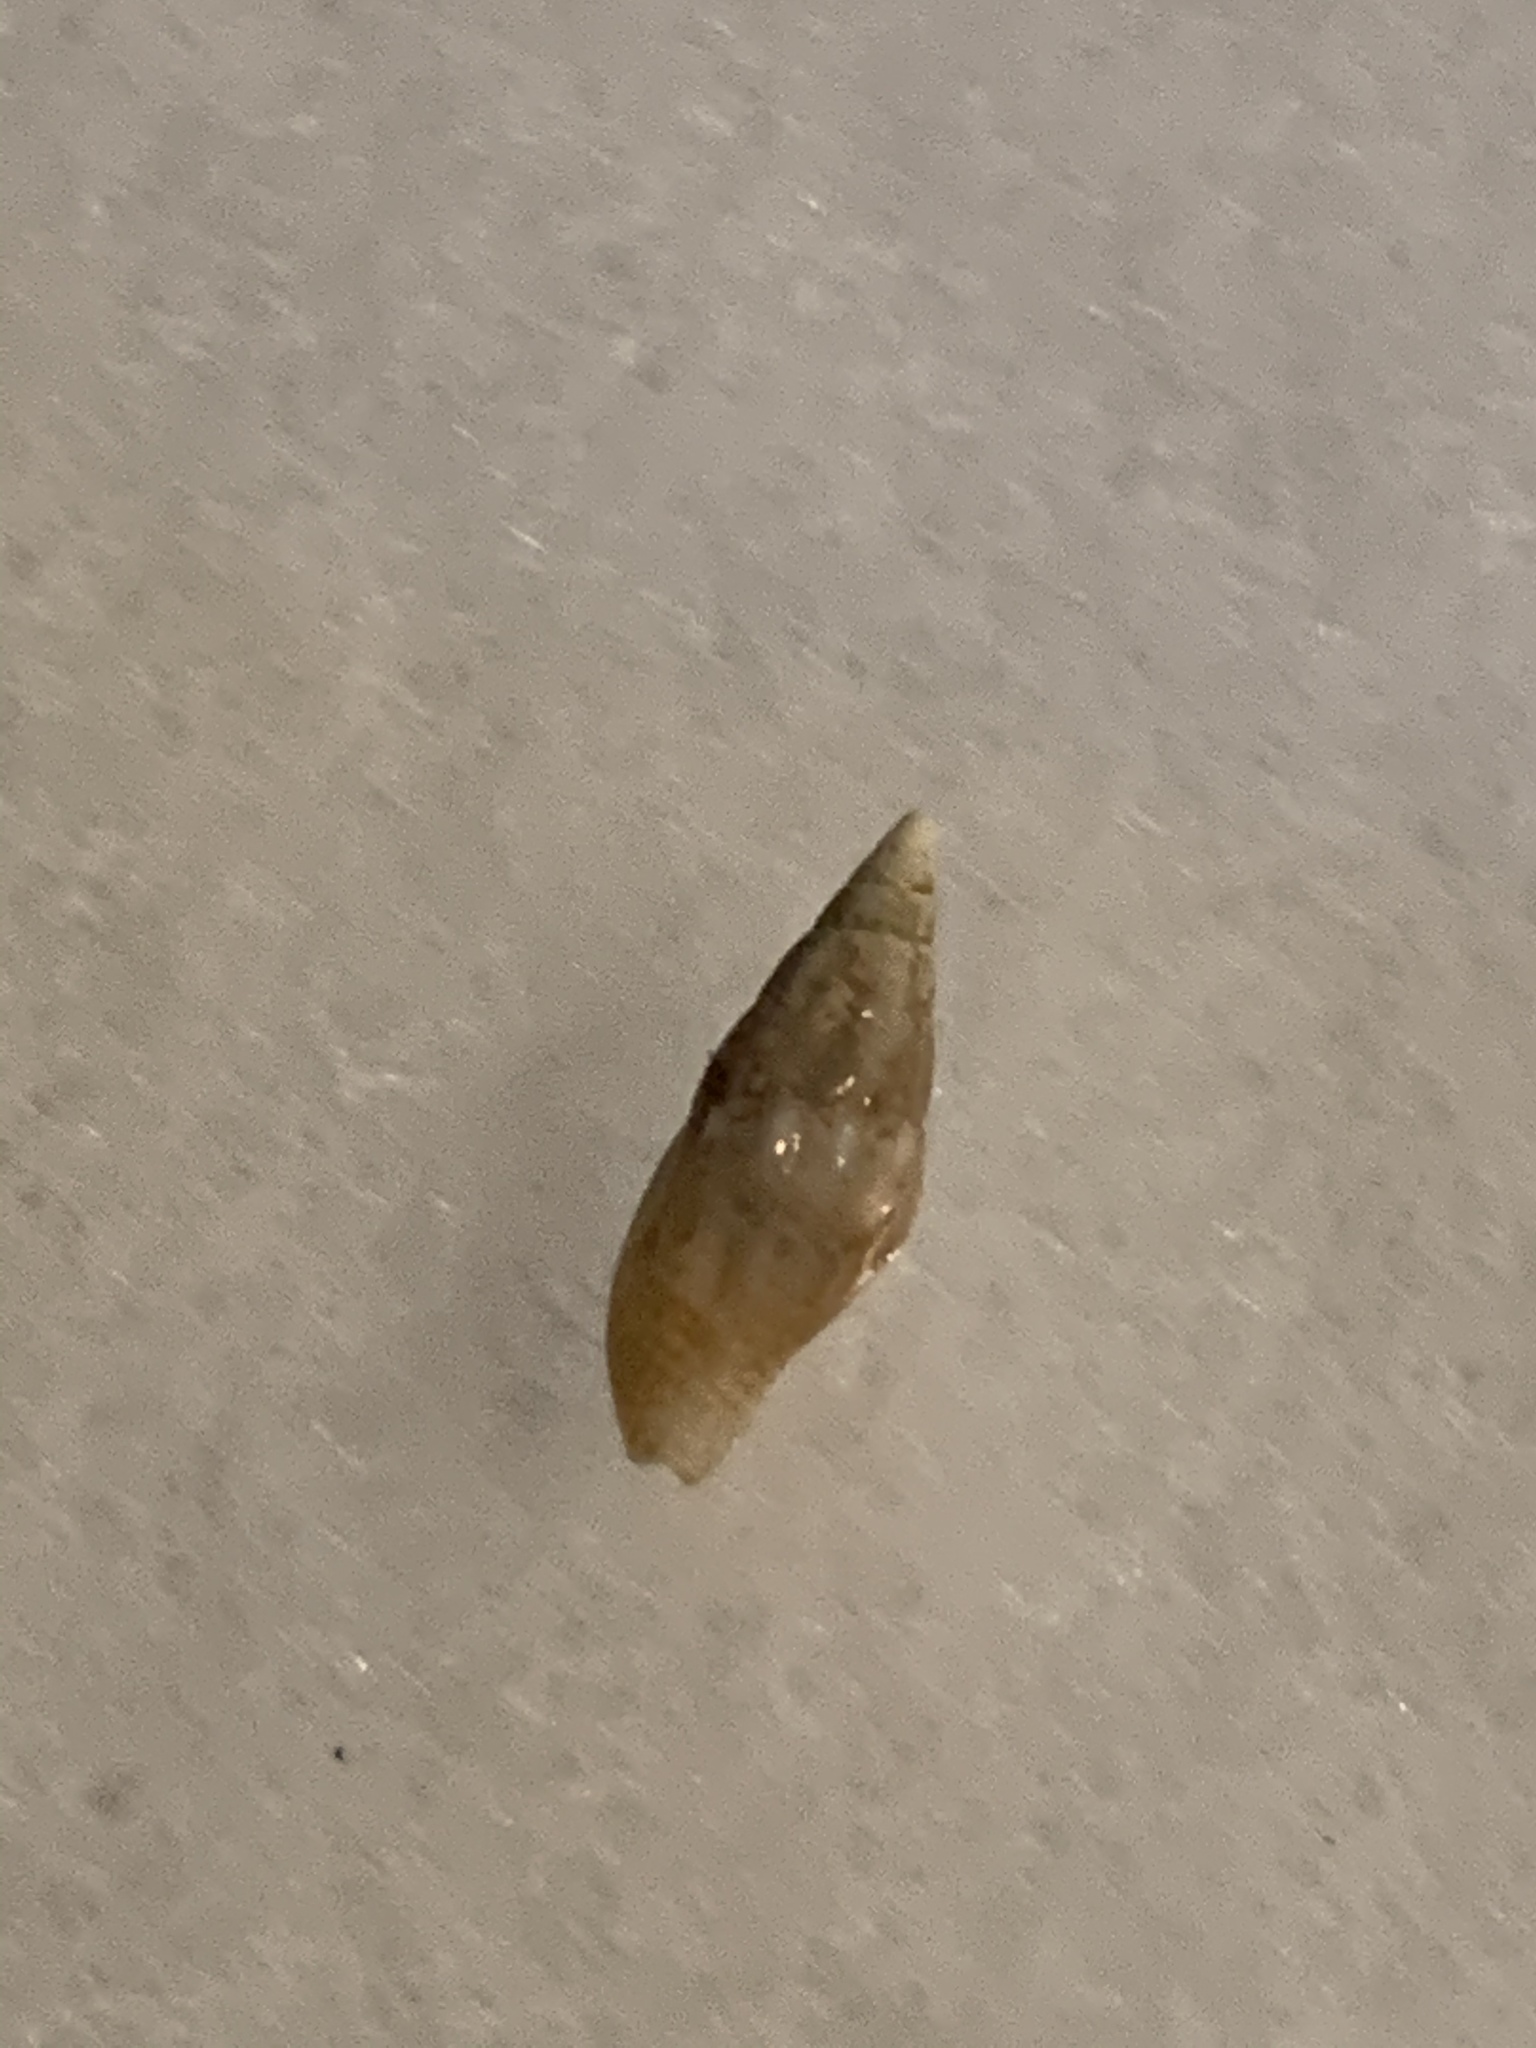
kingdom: Animalia
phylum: Mollusca
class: Gastropoda
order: Neogastropoda
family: Columbellidae
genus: Costoanachis
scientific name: Costoanachis semiplicata
